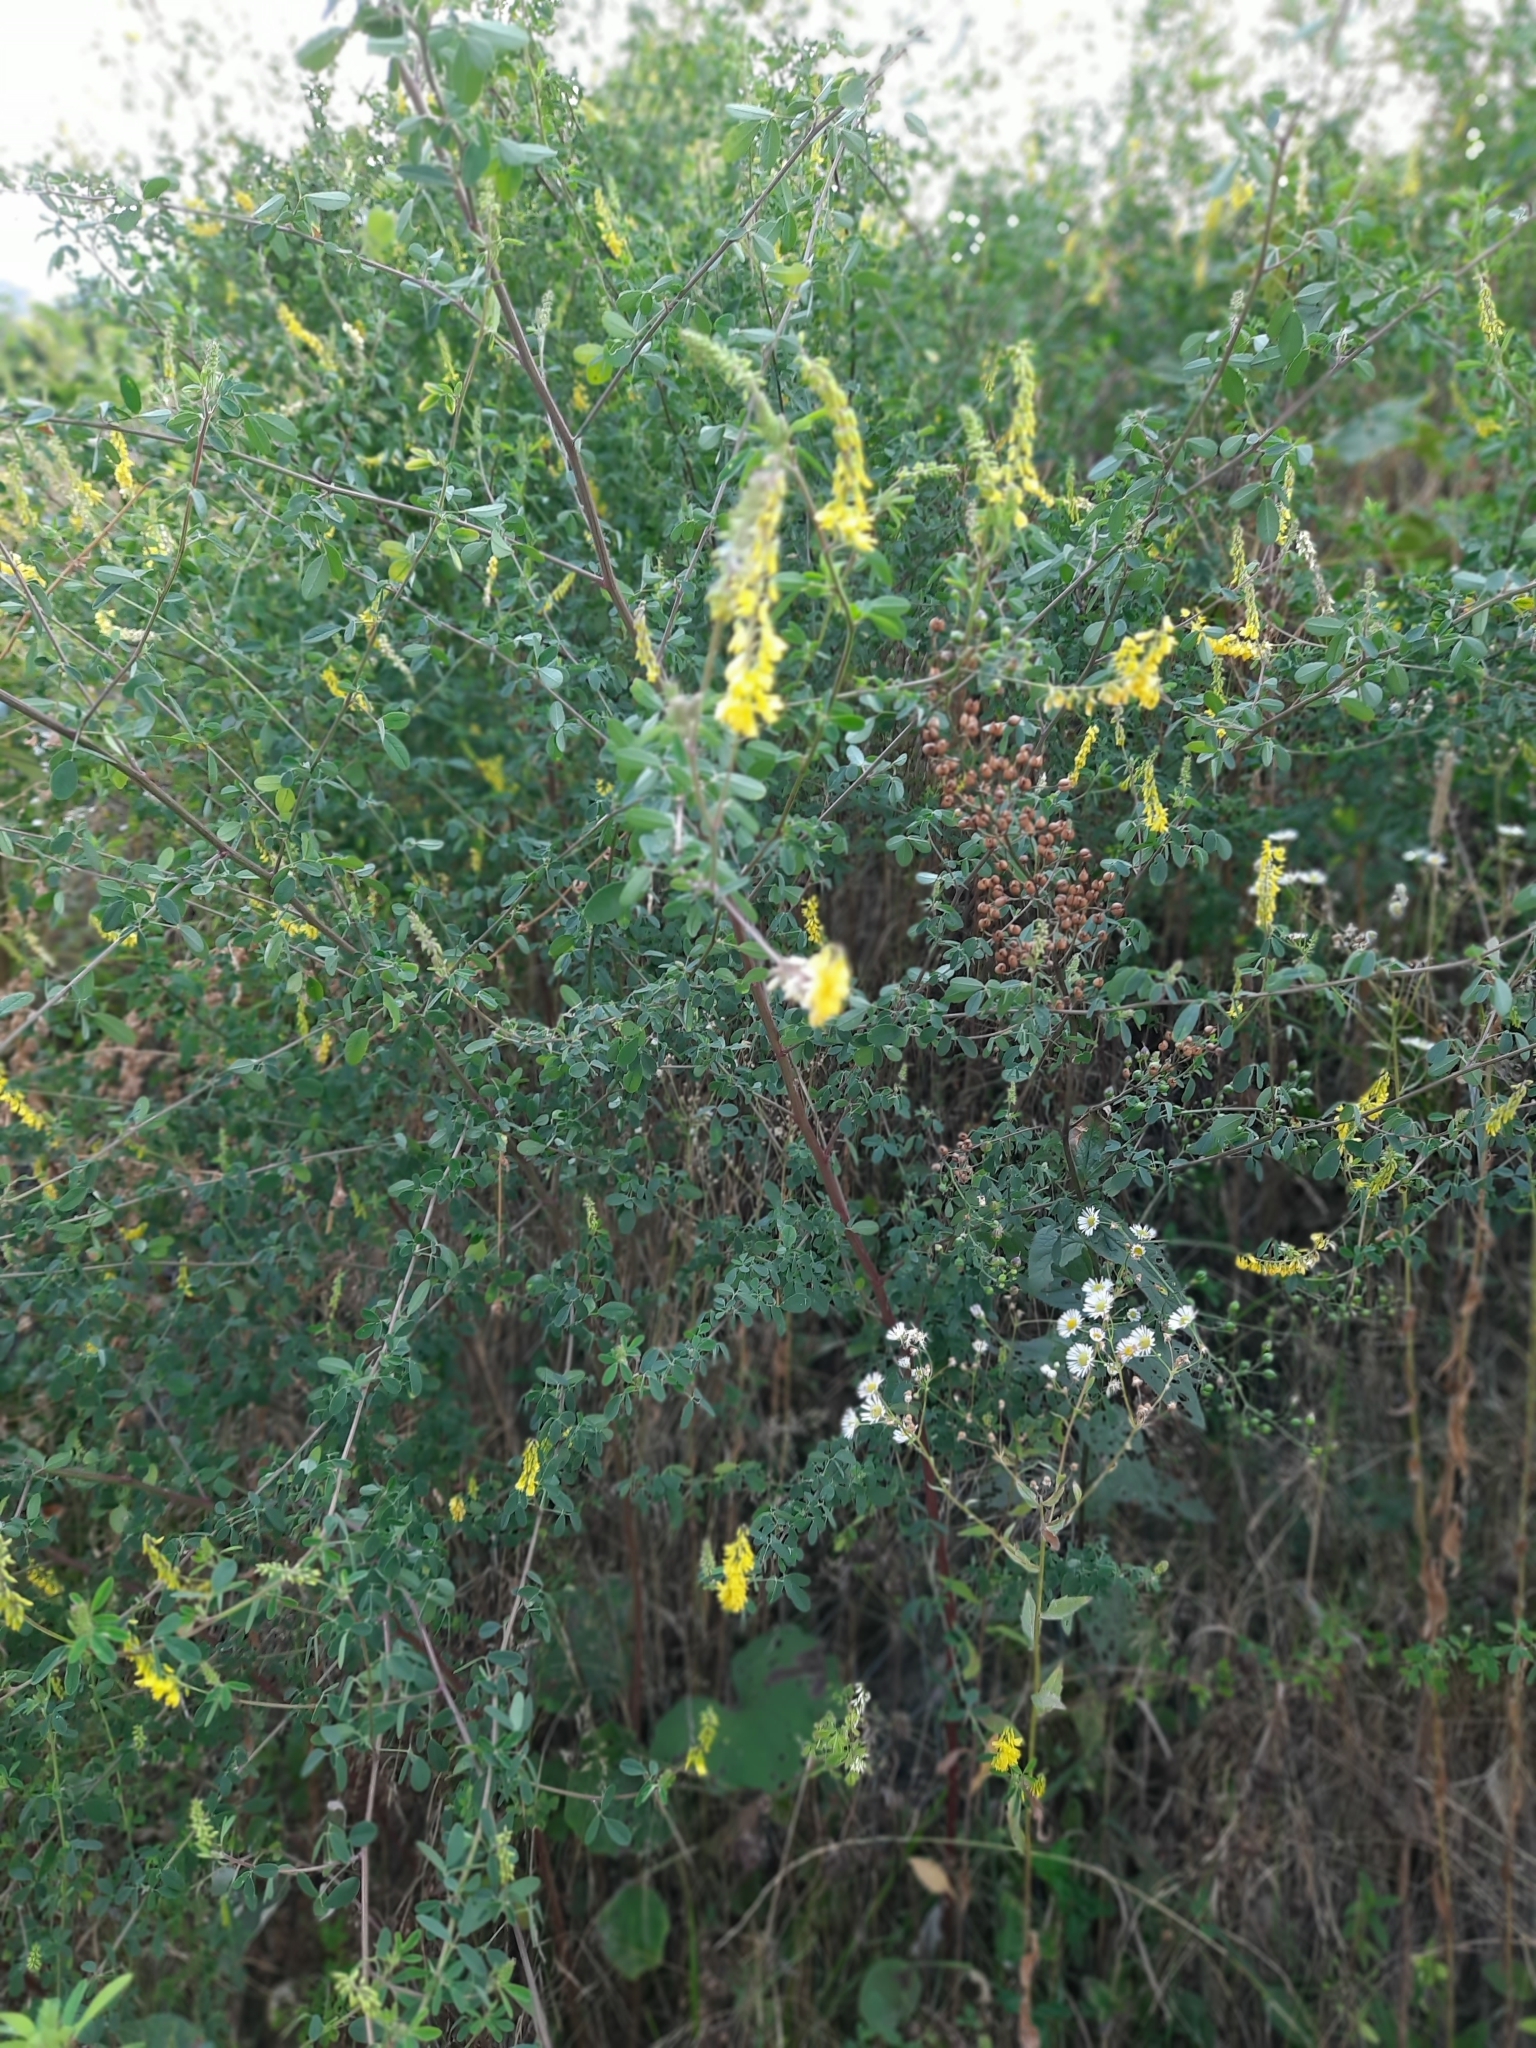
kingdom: Plantae
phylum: Tracheophyta
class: Magnoliopsida
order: Fabales
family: Fabaceae
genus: Melilotus
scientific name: Melilotus officinalis
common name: Sweetclover
